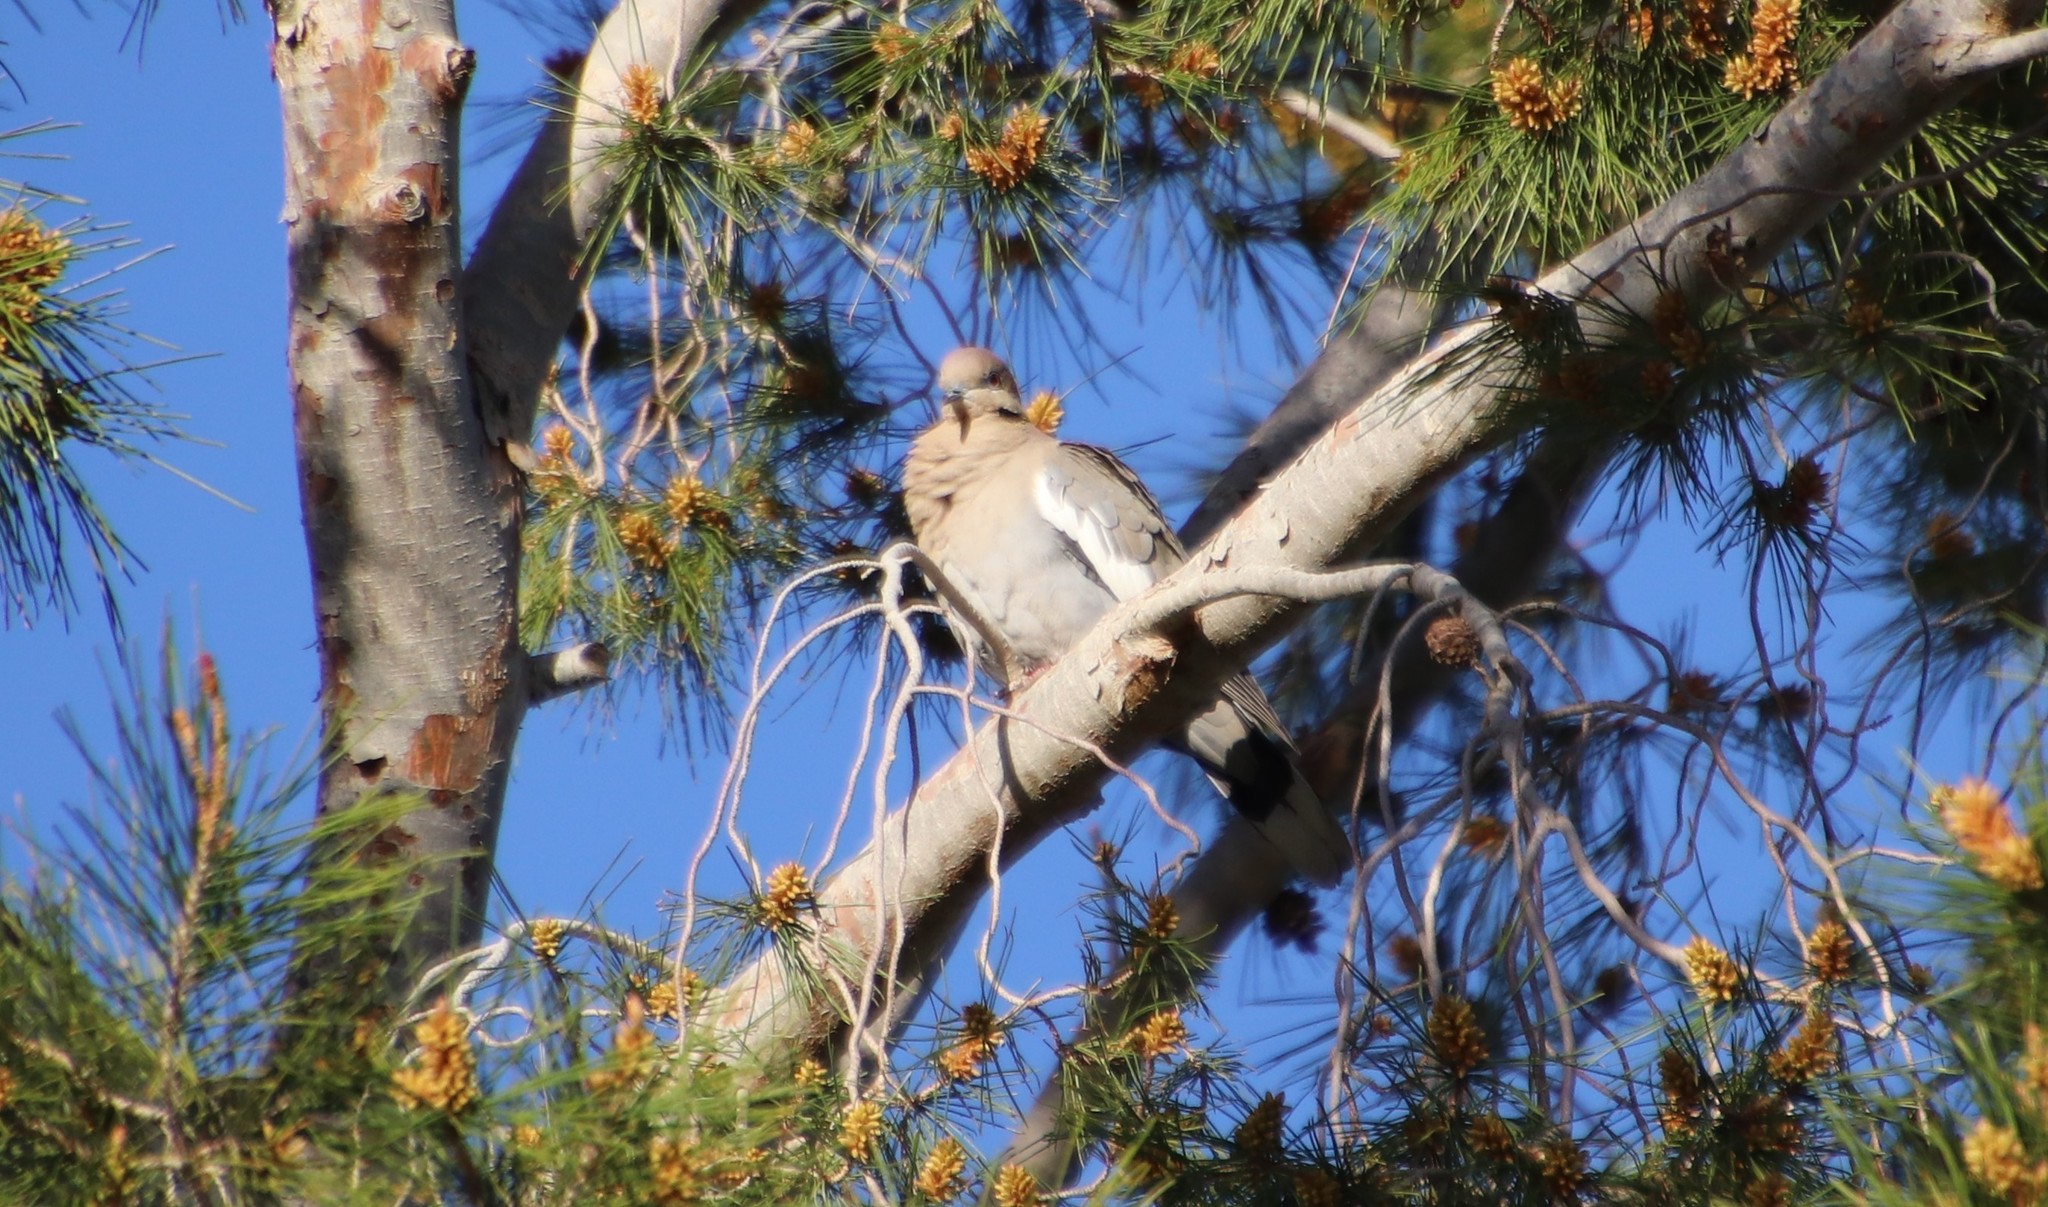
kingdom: Animalia
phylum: Chordata
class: Aves
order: Columbiformes
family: Columbidae
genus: Zenaida
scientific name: Zenaida asiatica
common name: White-winged dove
